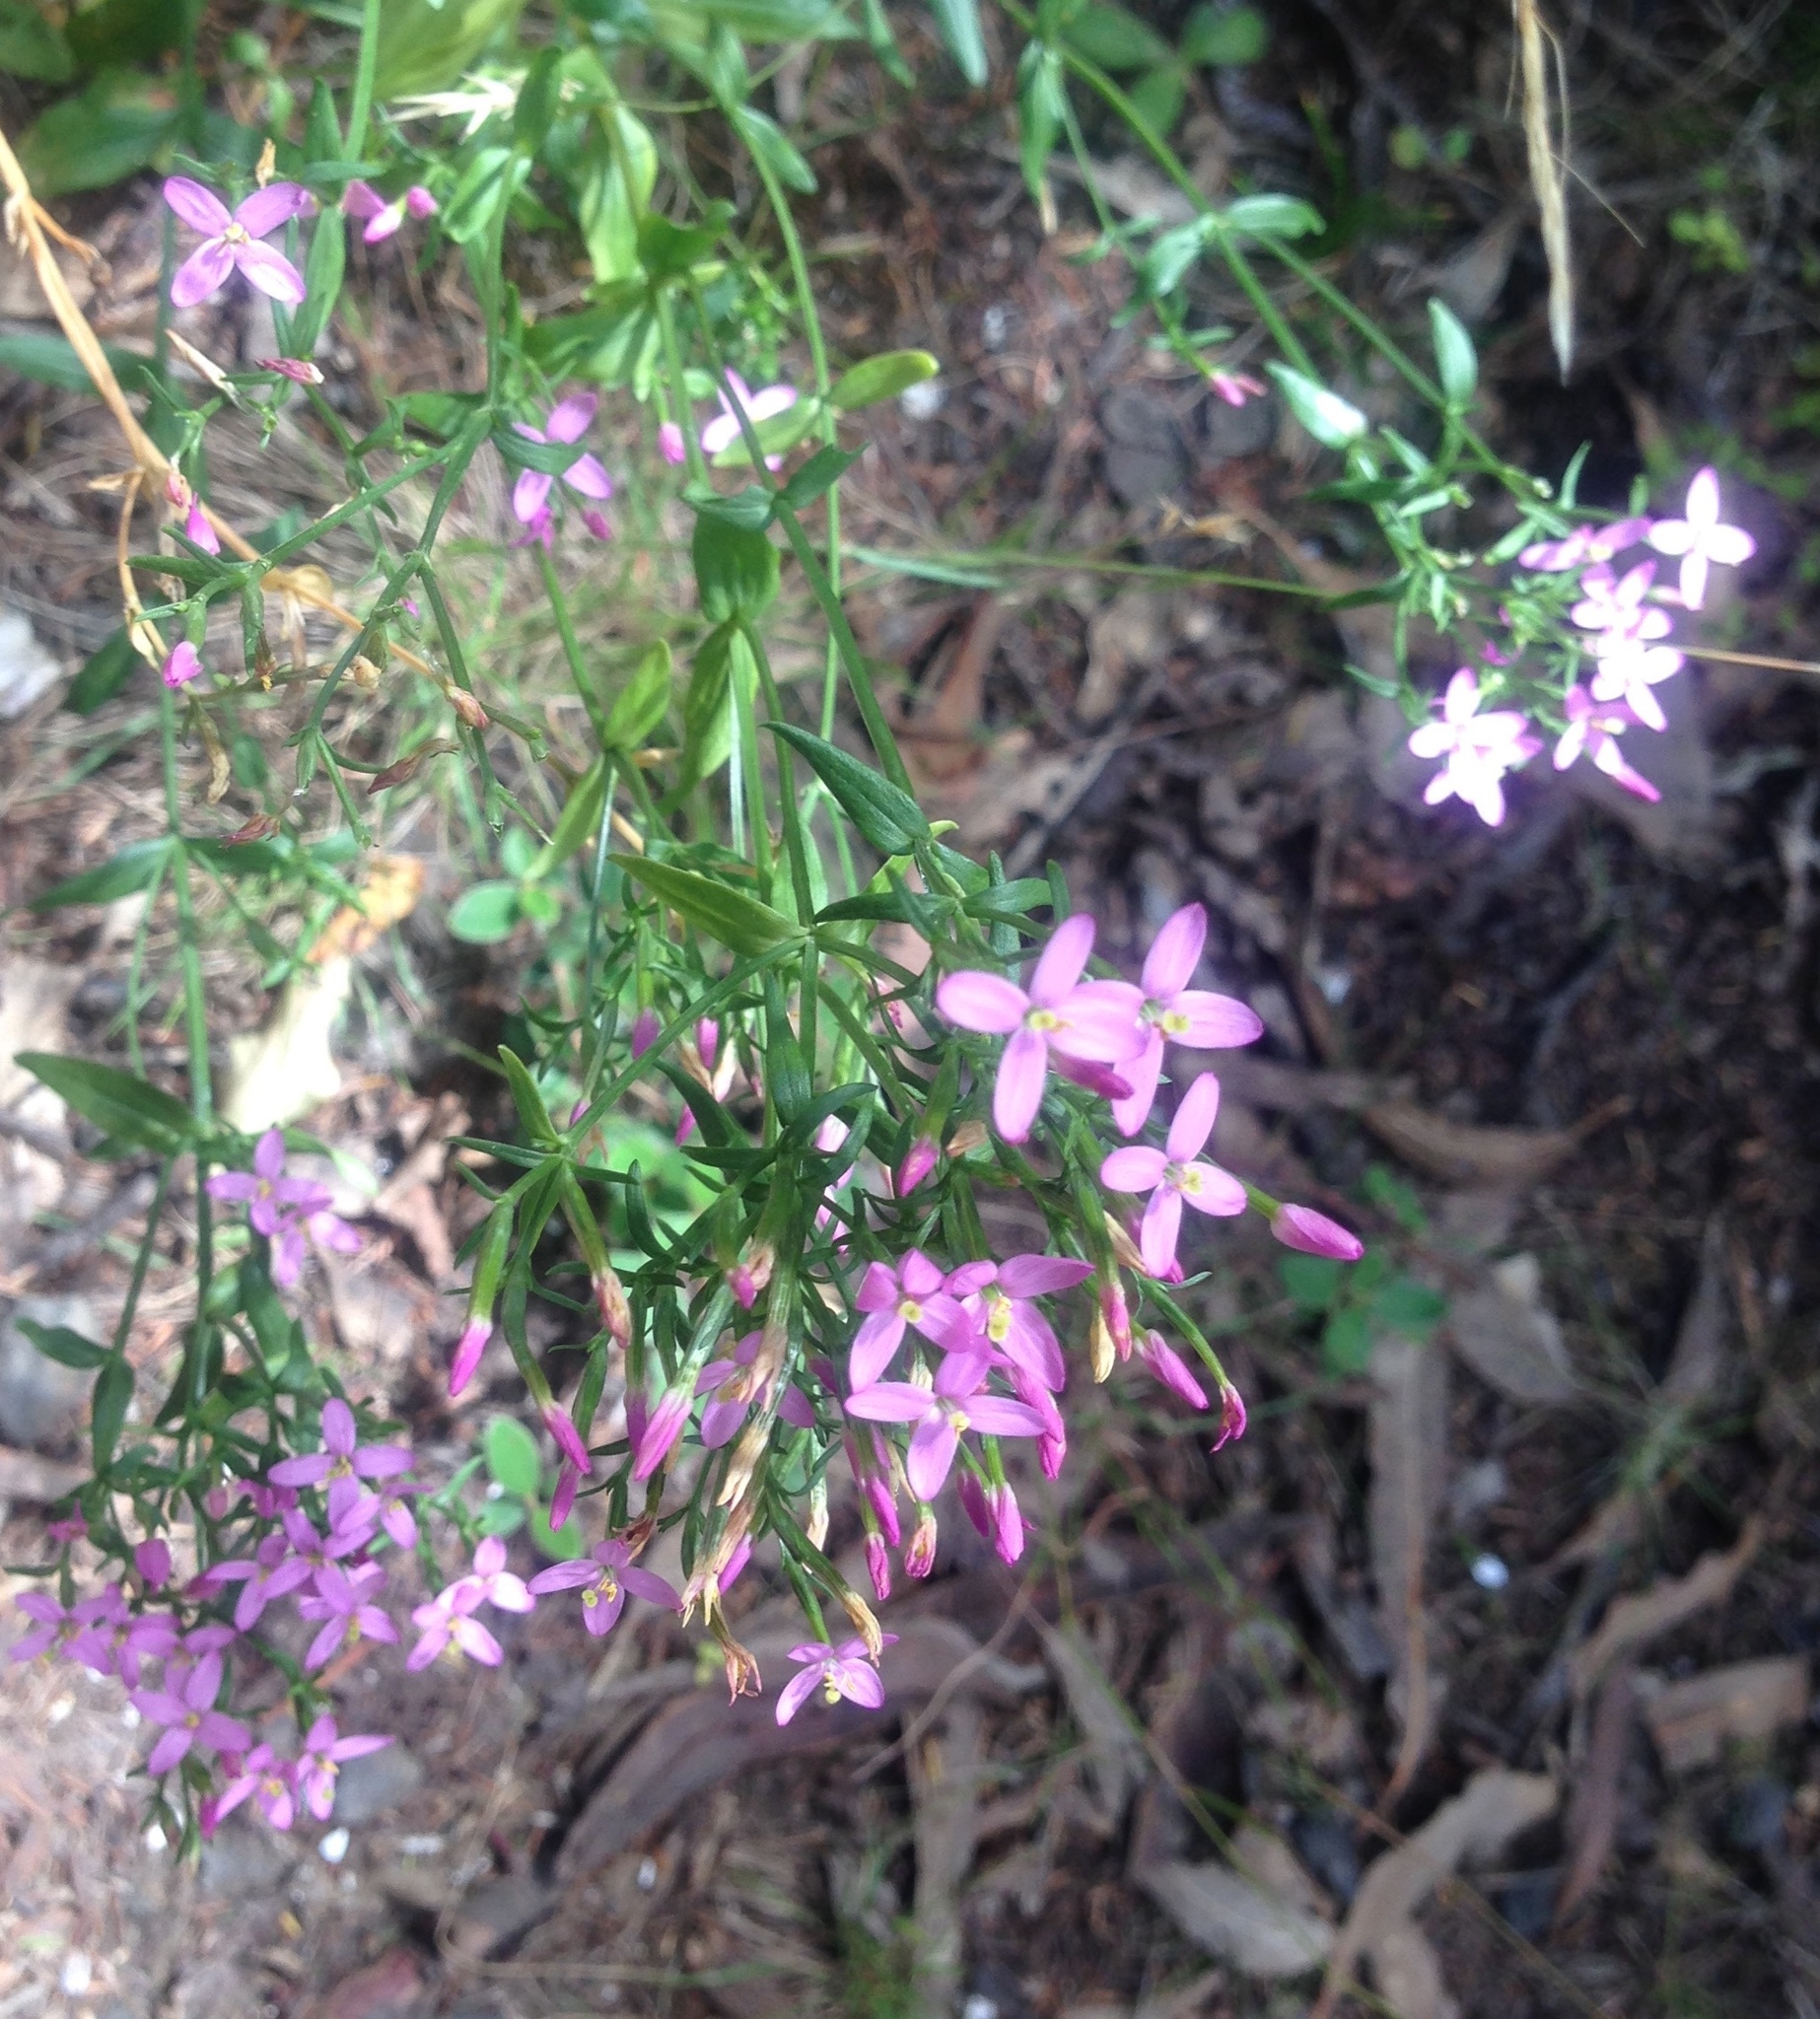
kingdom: Plantae
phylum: Tracheophyta
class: Magnoliopsida
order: Gentianales
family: Gentianaceae
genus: Centaurium
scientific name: Centaurium erythraea
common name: Common centaury
